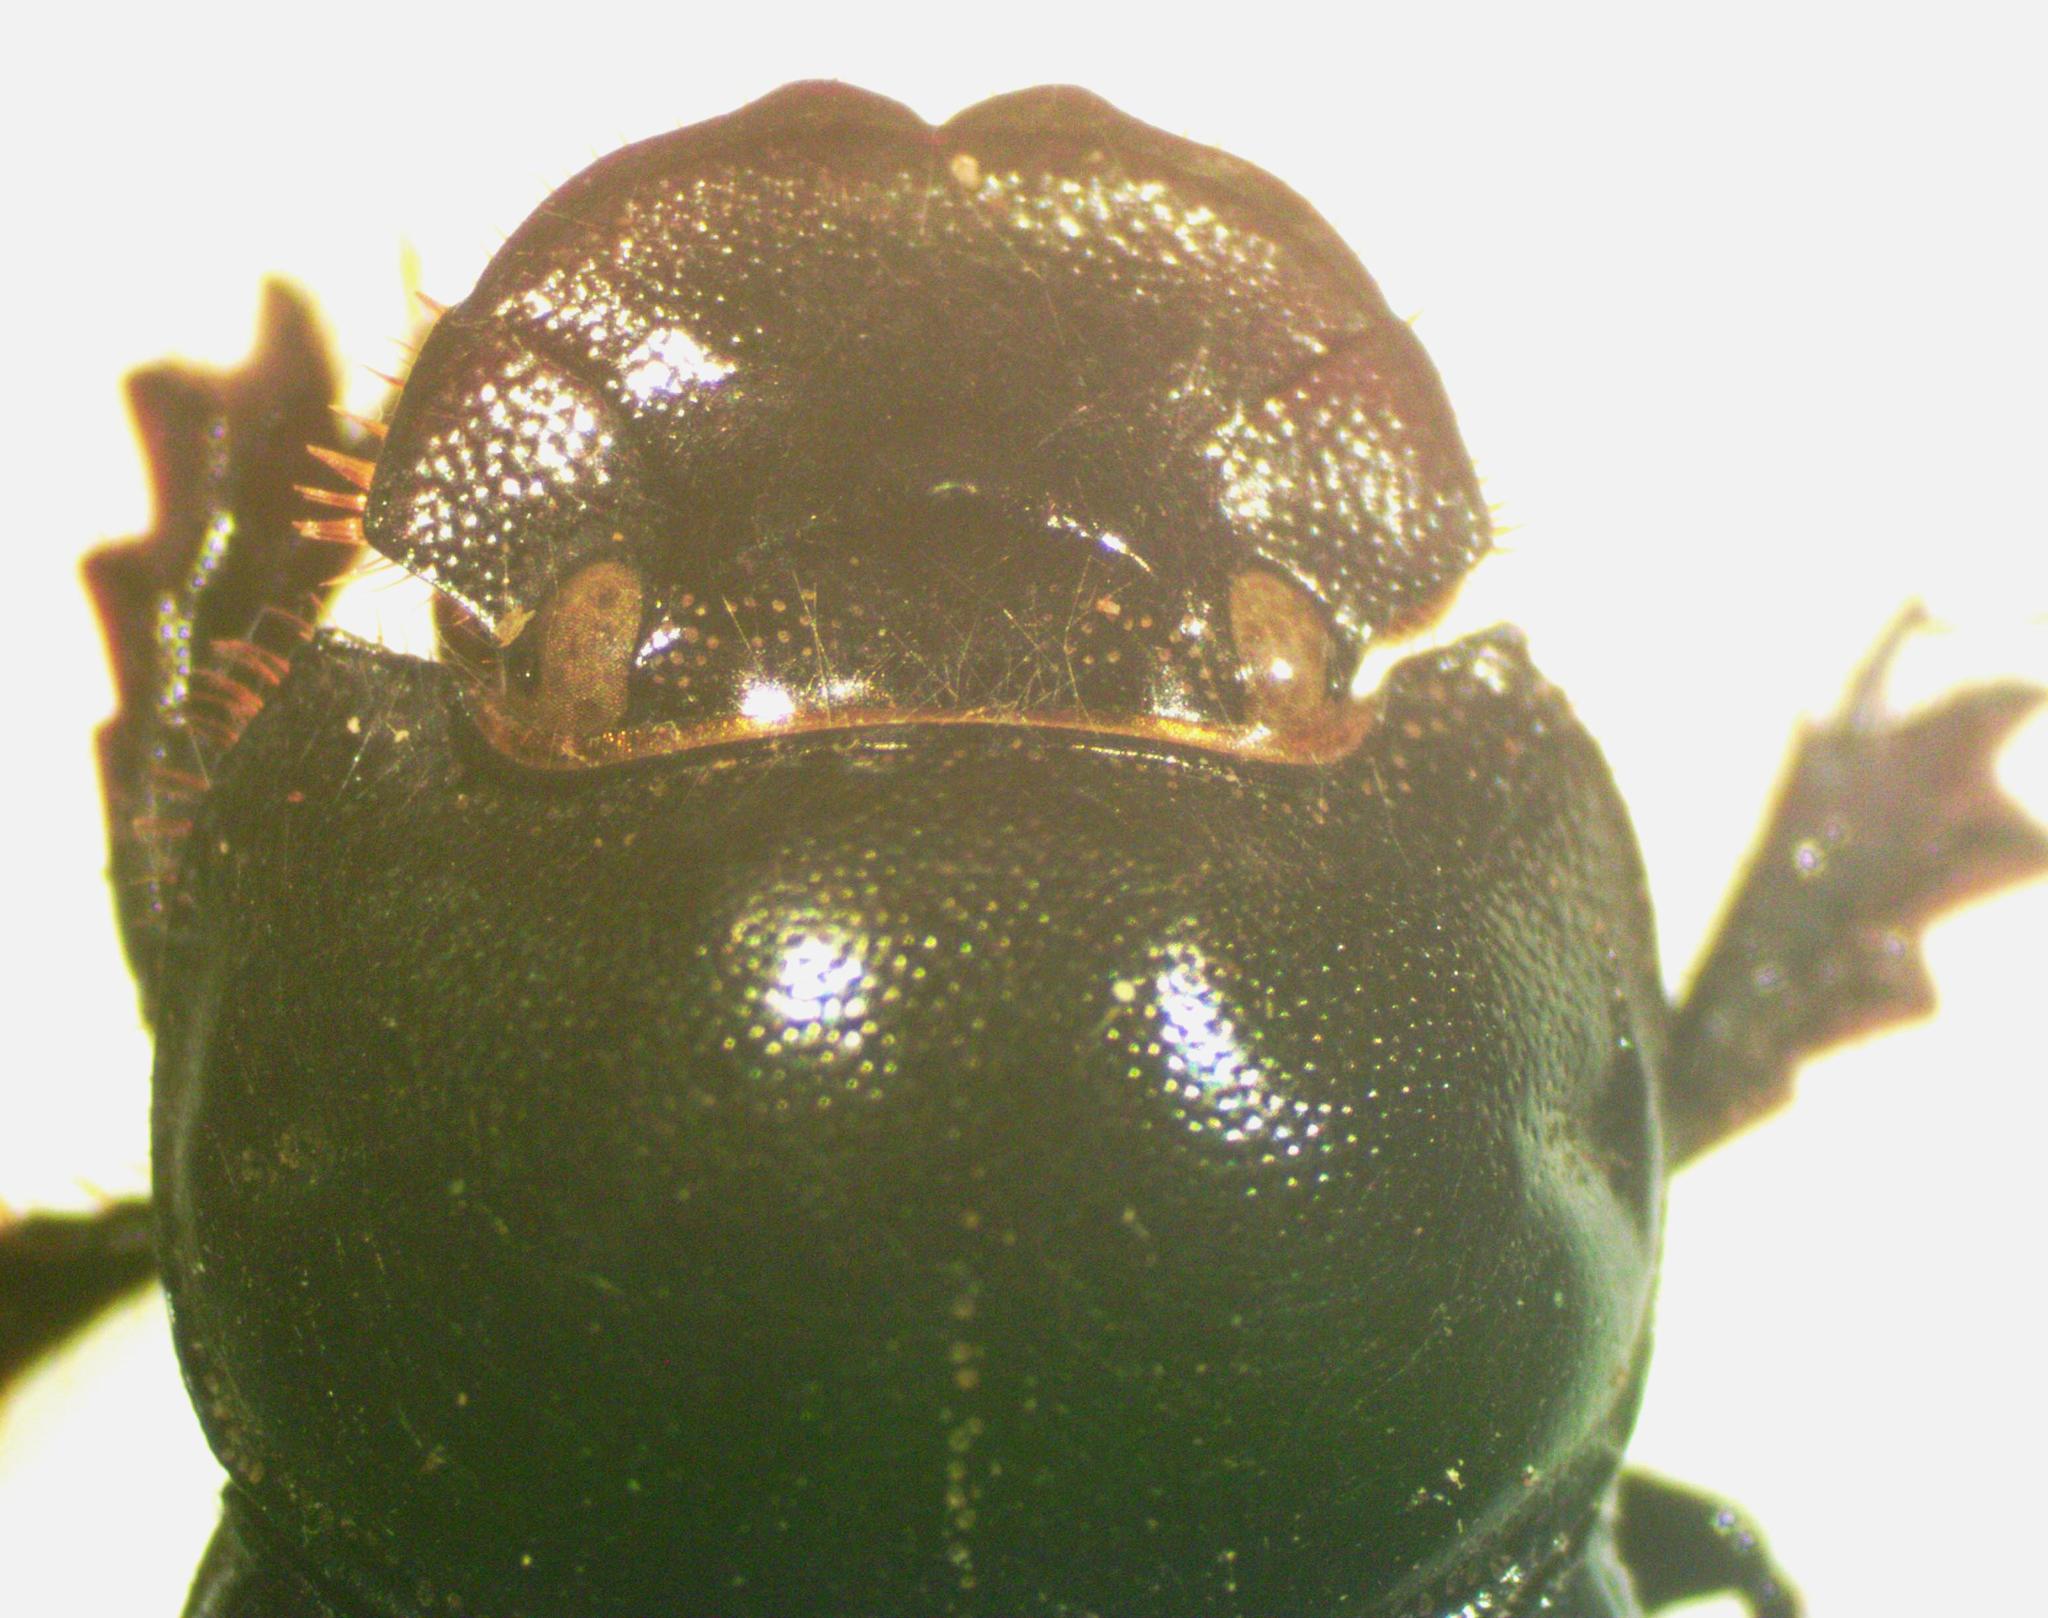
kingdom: Animalia
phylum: Arthropoda
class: Insecta
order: Coleoptera
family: Scarabaeidae
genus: Copris
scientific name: Copris lugubris
